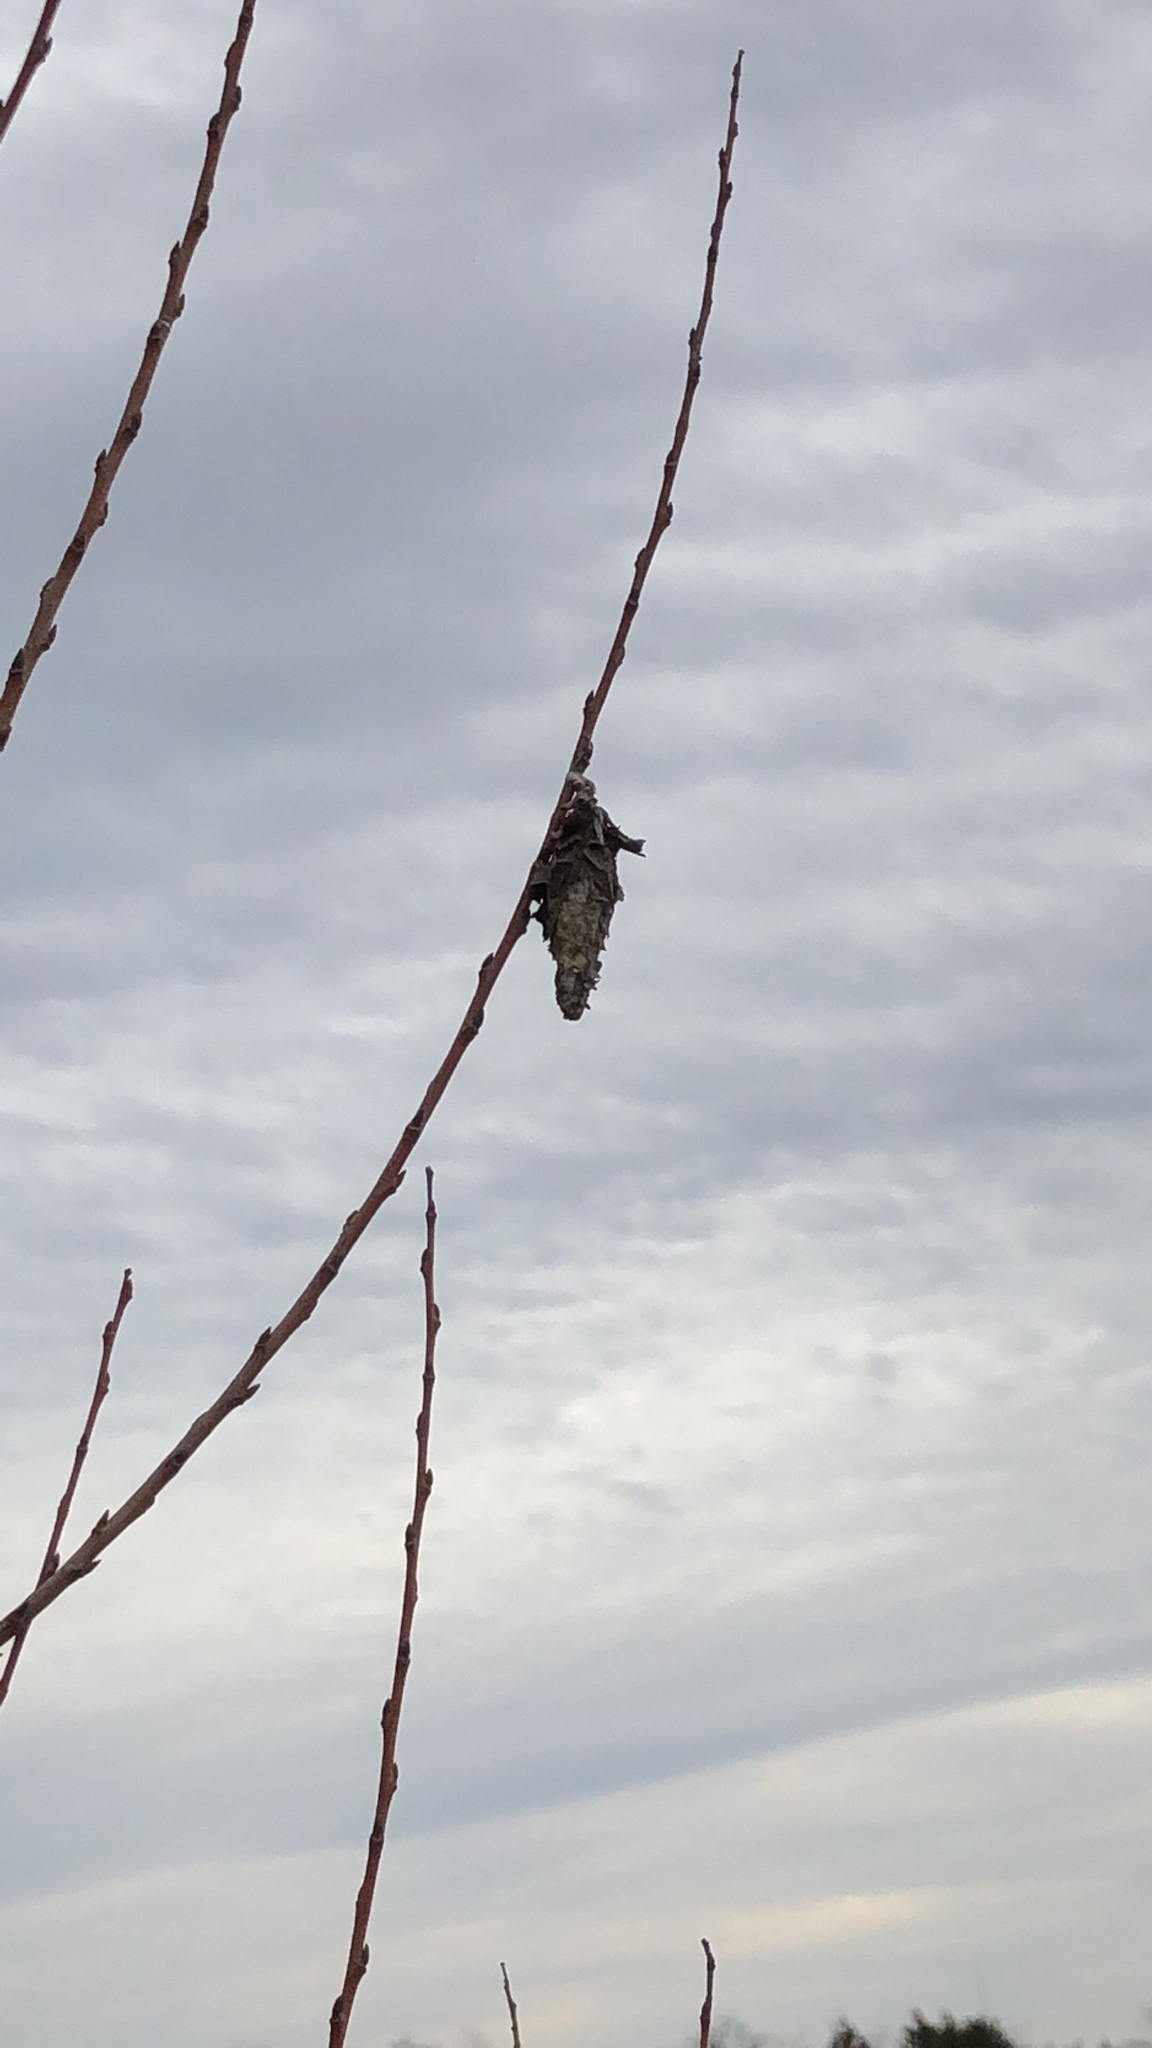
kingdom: Animalia
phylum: Arthropoda
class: Insecta
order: Lepidoptera
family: Psychidae
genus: Thyridopteryx
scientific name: Thyridopteryx ephemeraeformis
